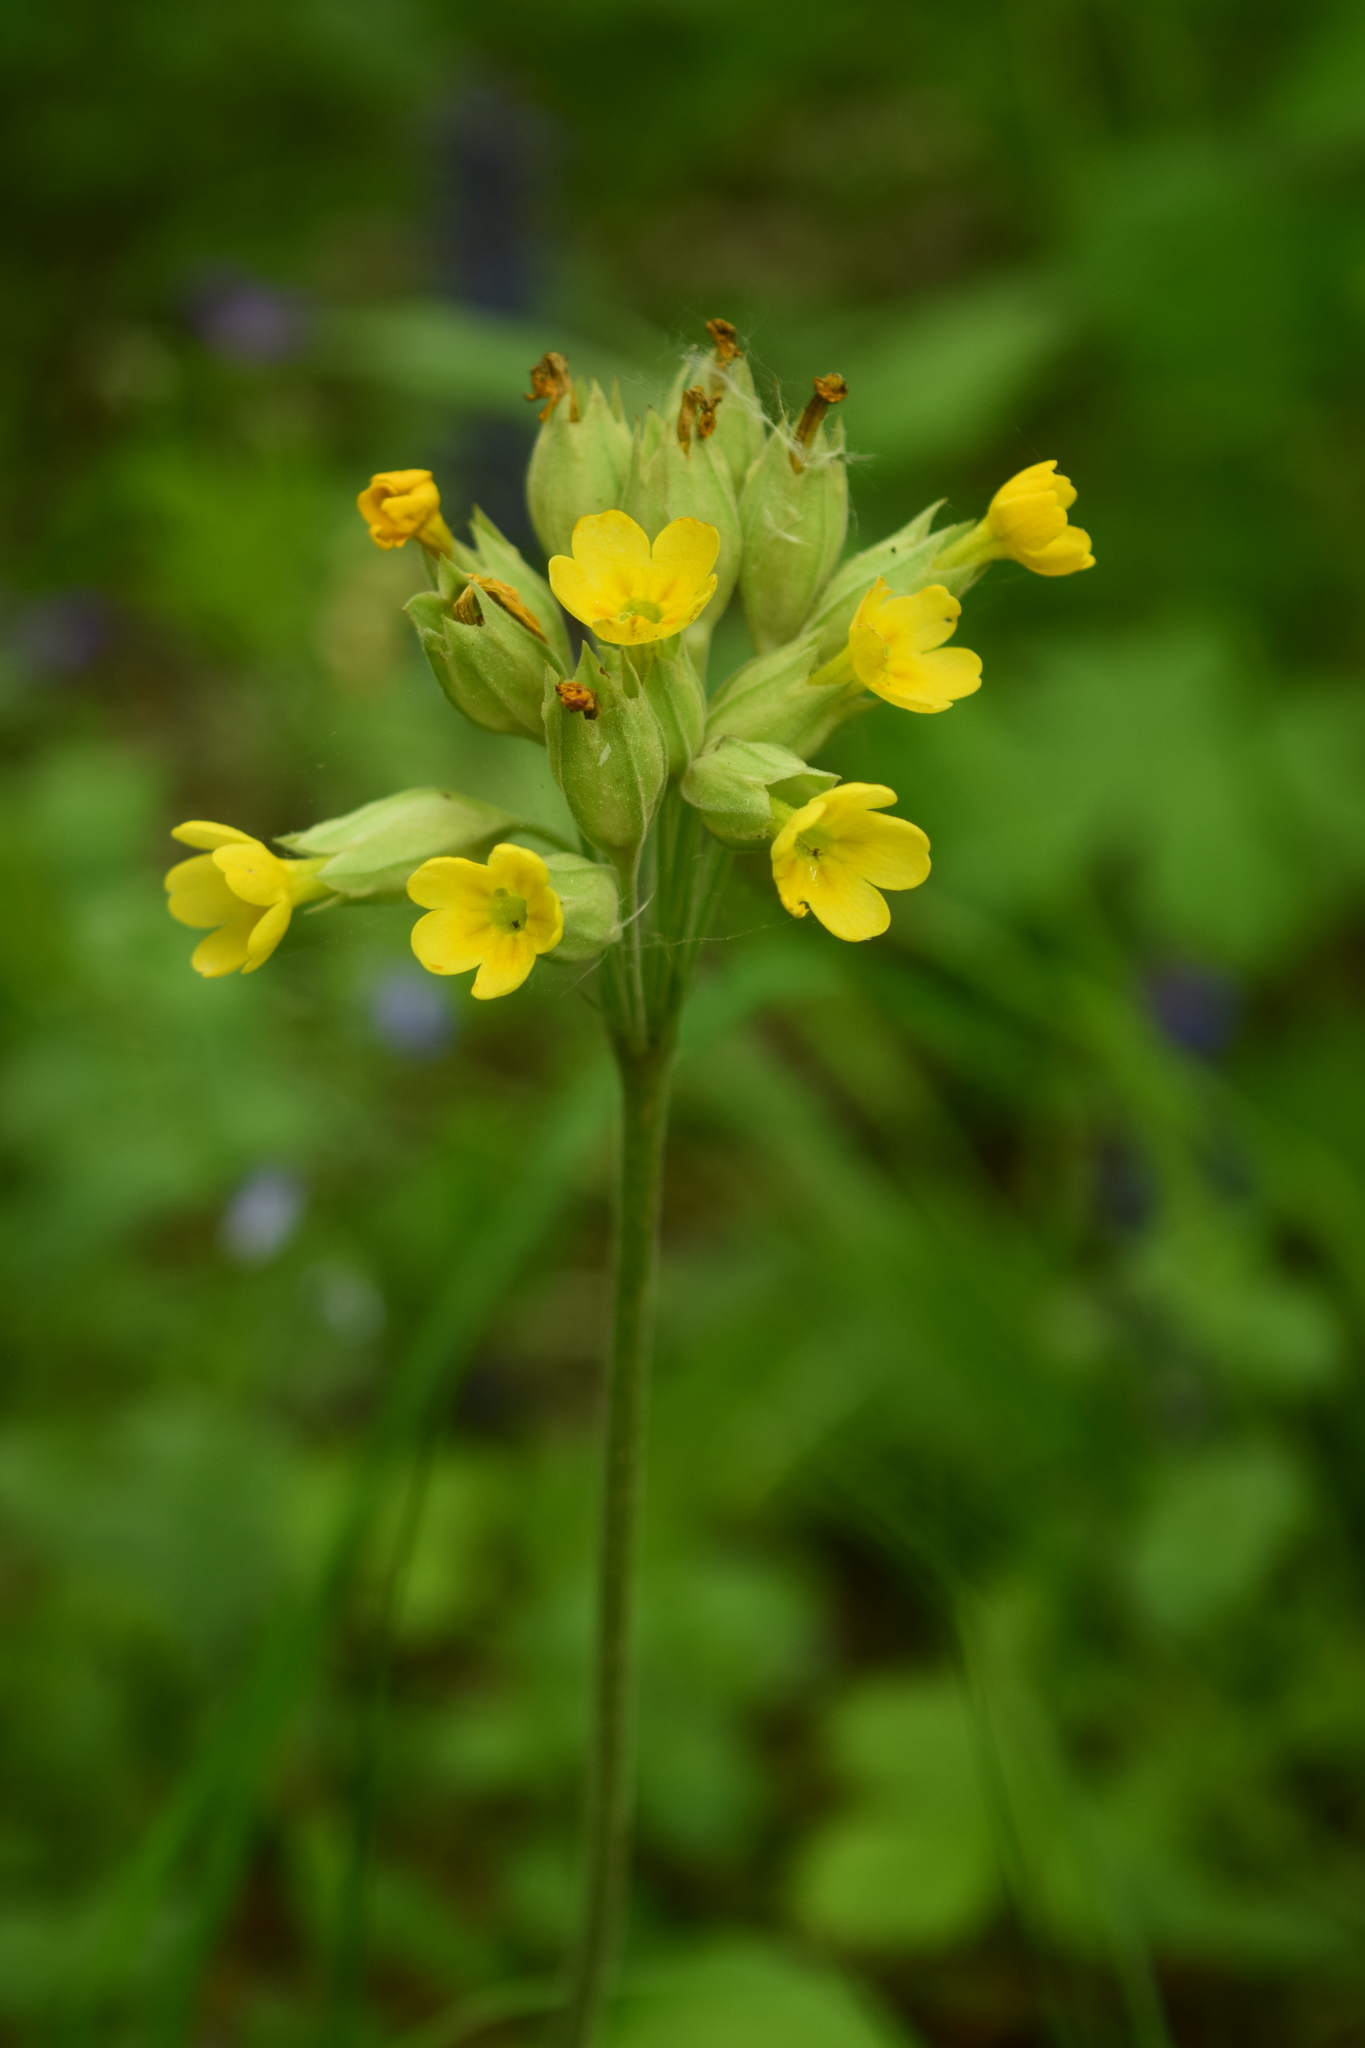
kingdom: Plantae
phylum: Tracheophyta
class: Magnoliopsida
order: Ericales
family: Primulaceae
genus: Primula
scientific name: Primula veris
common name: Cowslip
